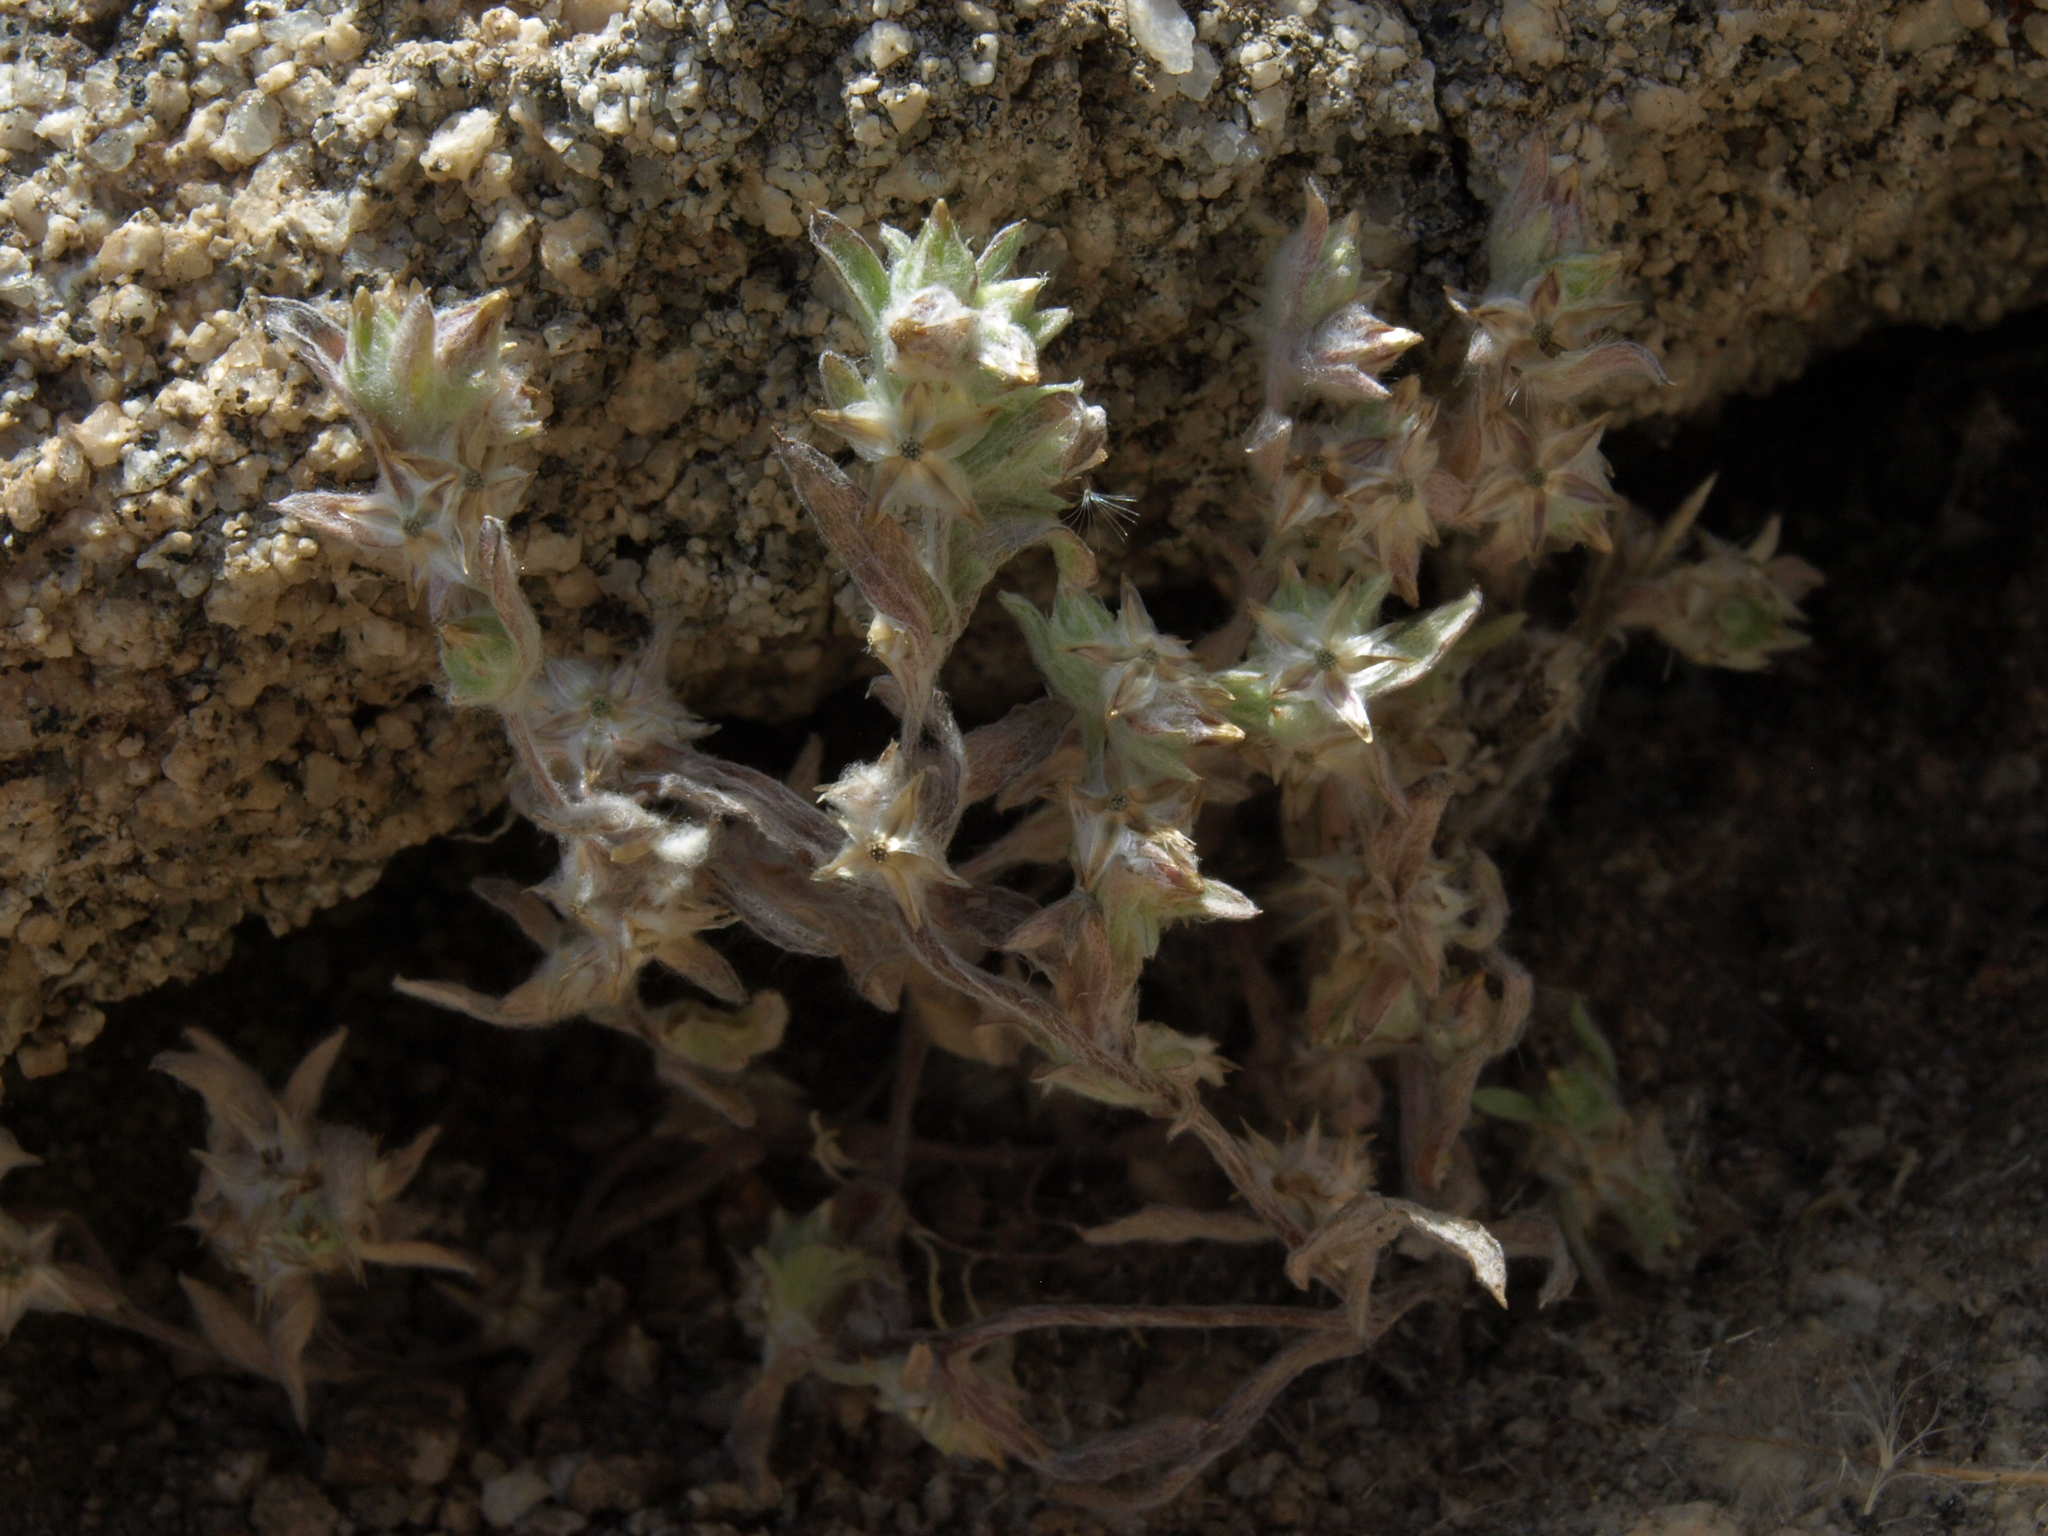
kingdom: Plantae
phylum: Tracheophyta
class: Magnoliopsida
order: Asterales
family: Asteraceae
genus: Logfia
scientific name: Logfia californica
